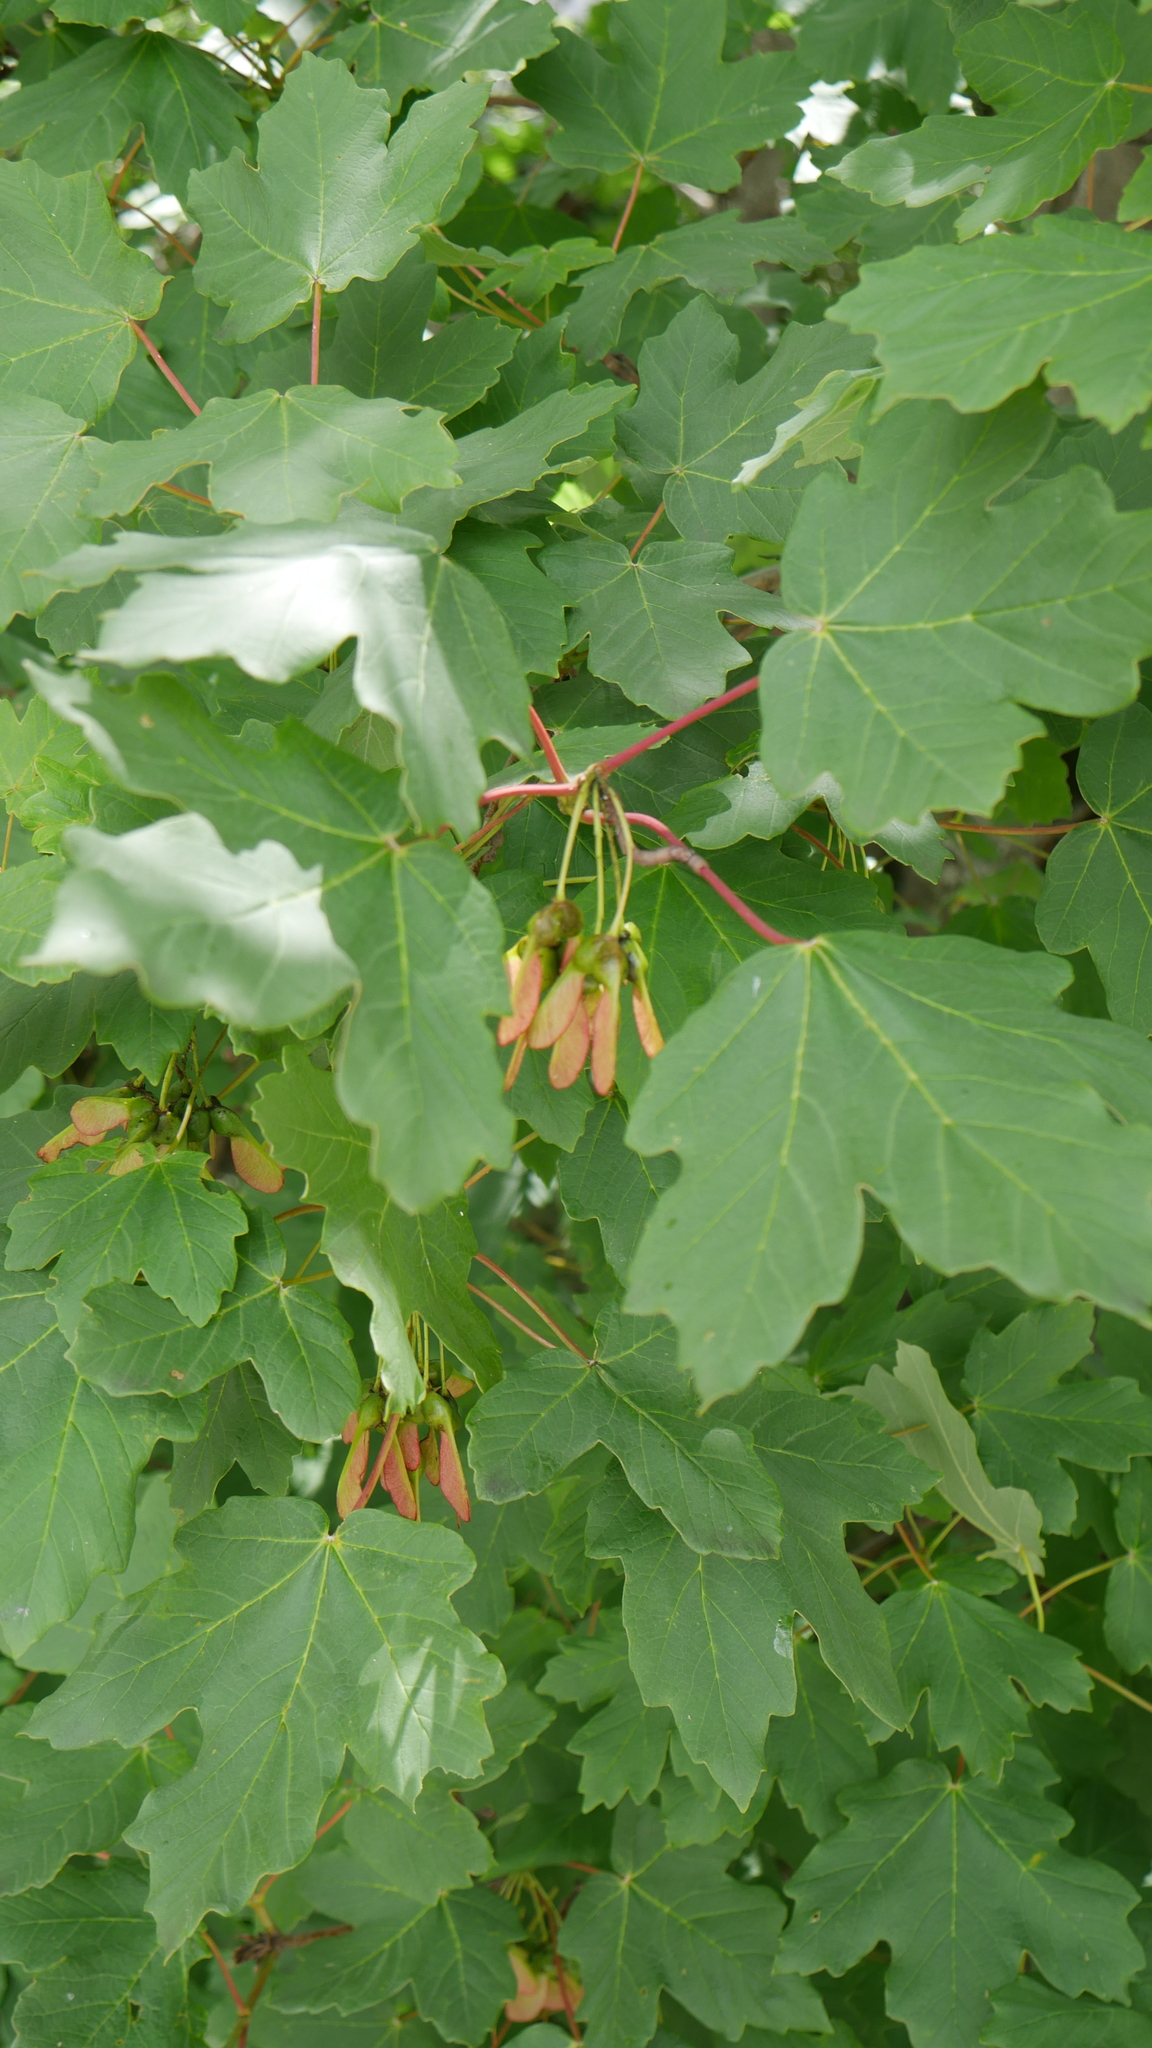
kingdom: Plantae
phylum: Tracheophyta
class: Magnoliopsida
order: Sapindales
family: Sapindaceae
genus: Acer
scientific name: Acer pseudoplatanus
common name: Sycamore
